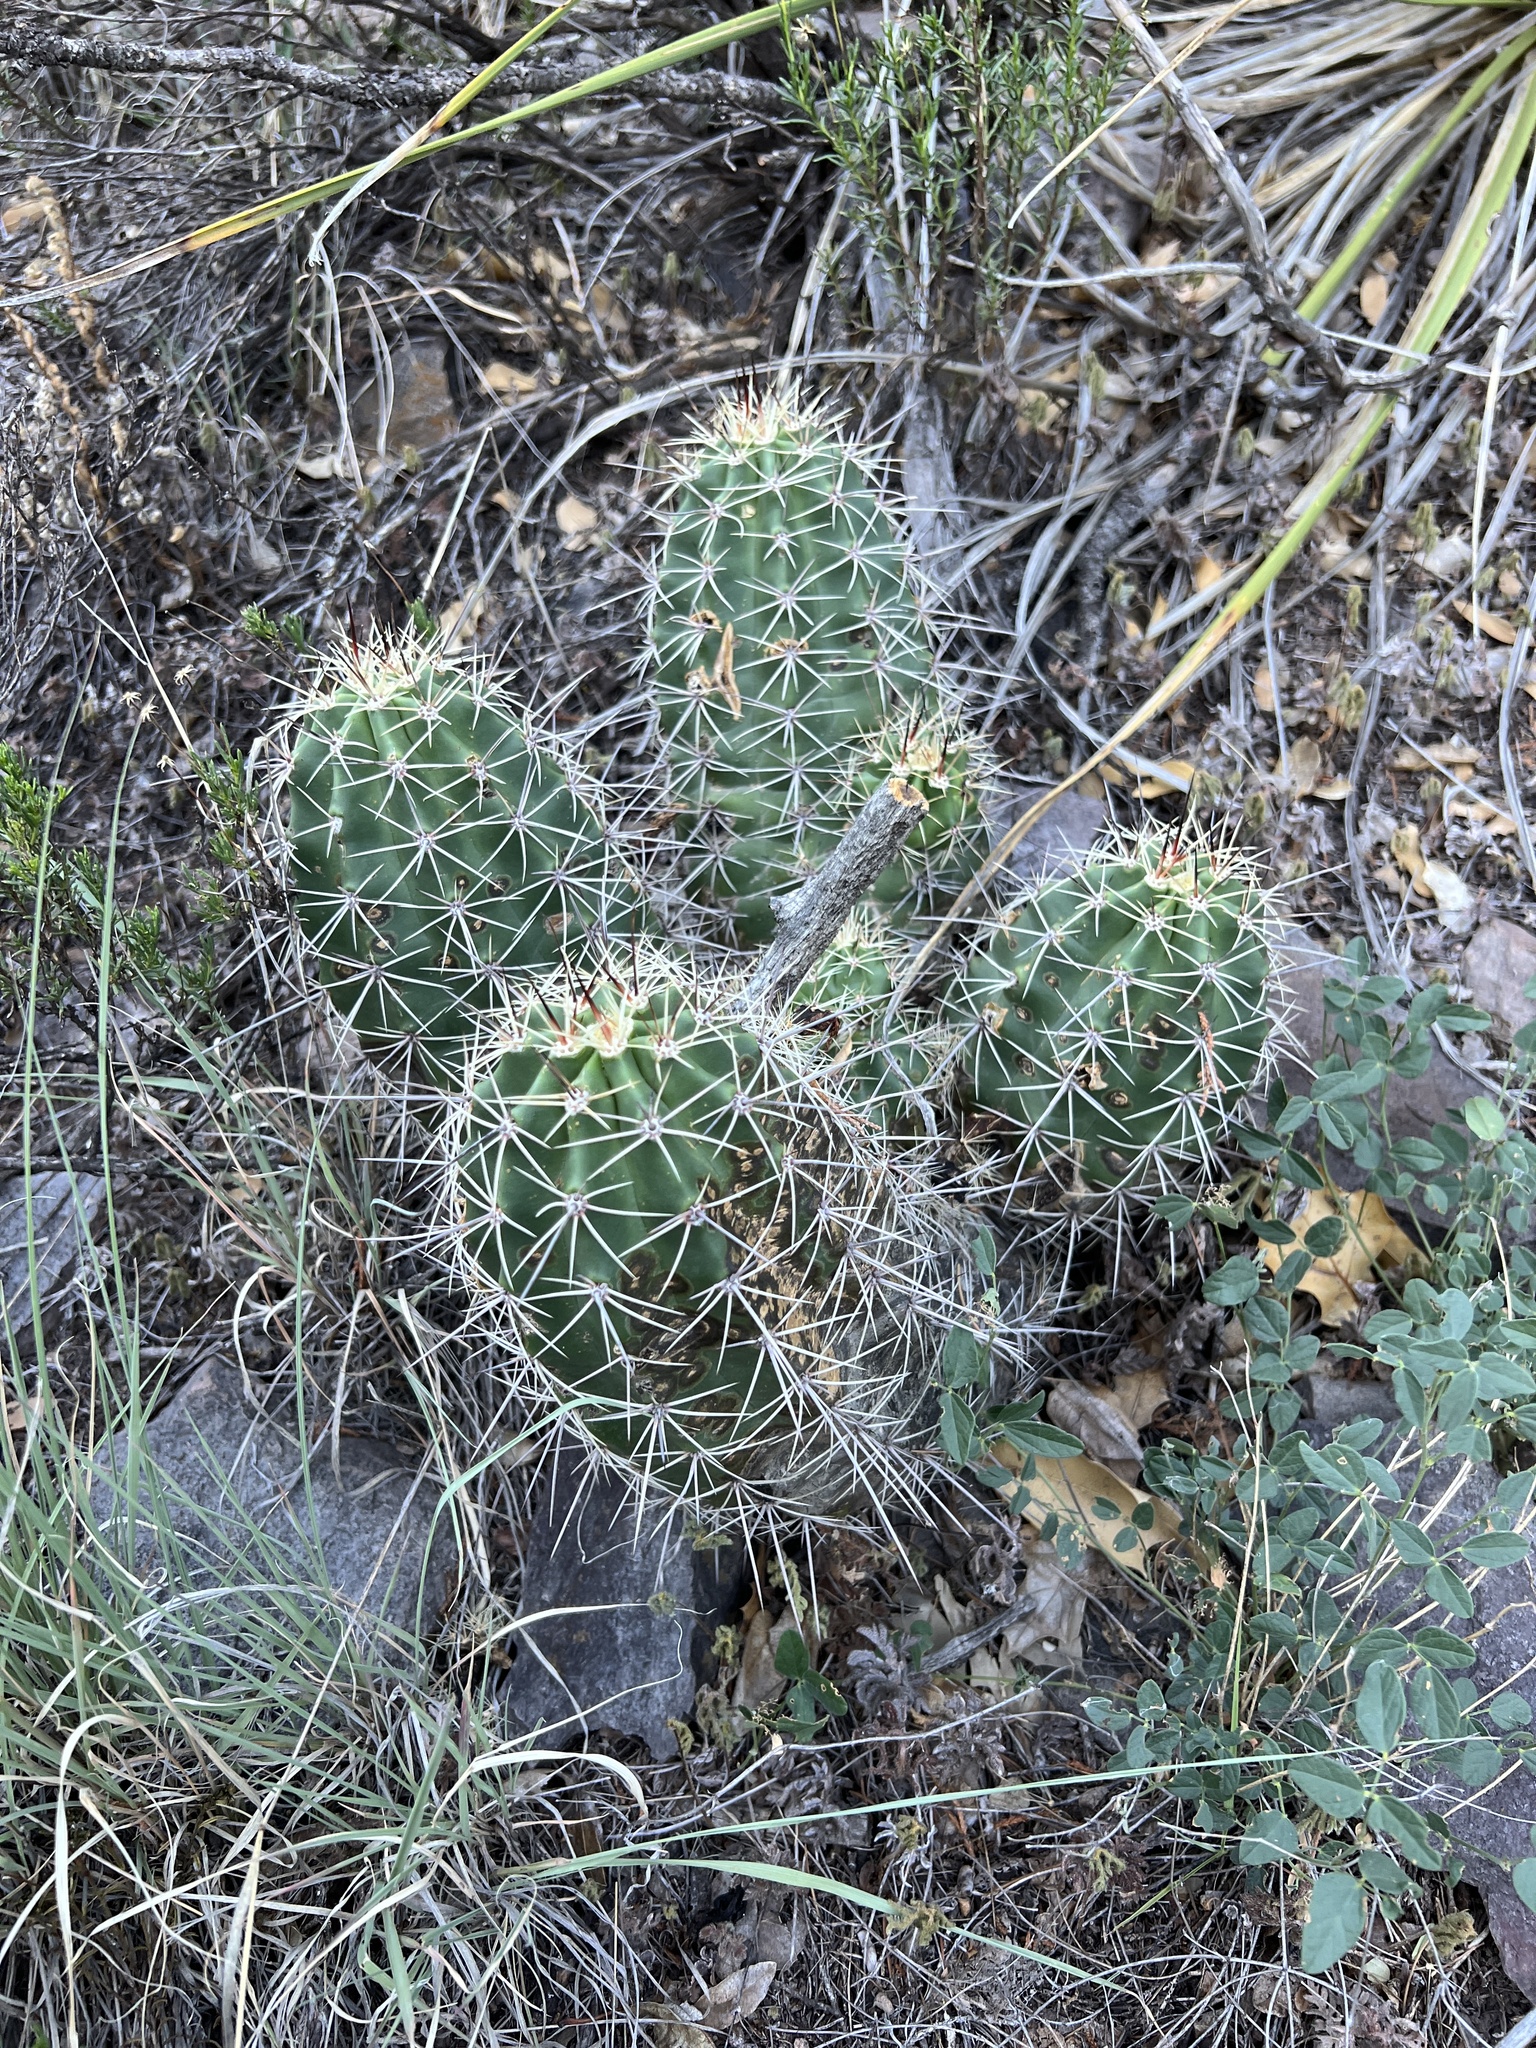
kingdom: Plantae
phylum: Tracheophyta
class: Magnoliopsida
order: Caryophyllales
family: Cactaceae
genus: Echinocereus
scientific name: Echinocereus coccineus
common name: Scarlet hedgehog cactus
